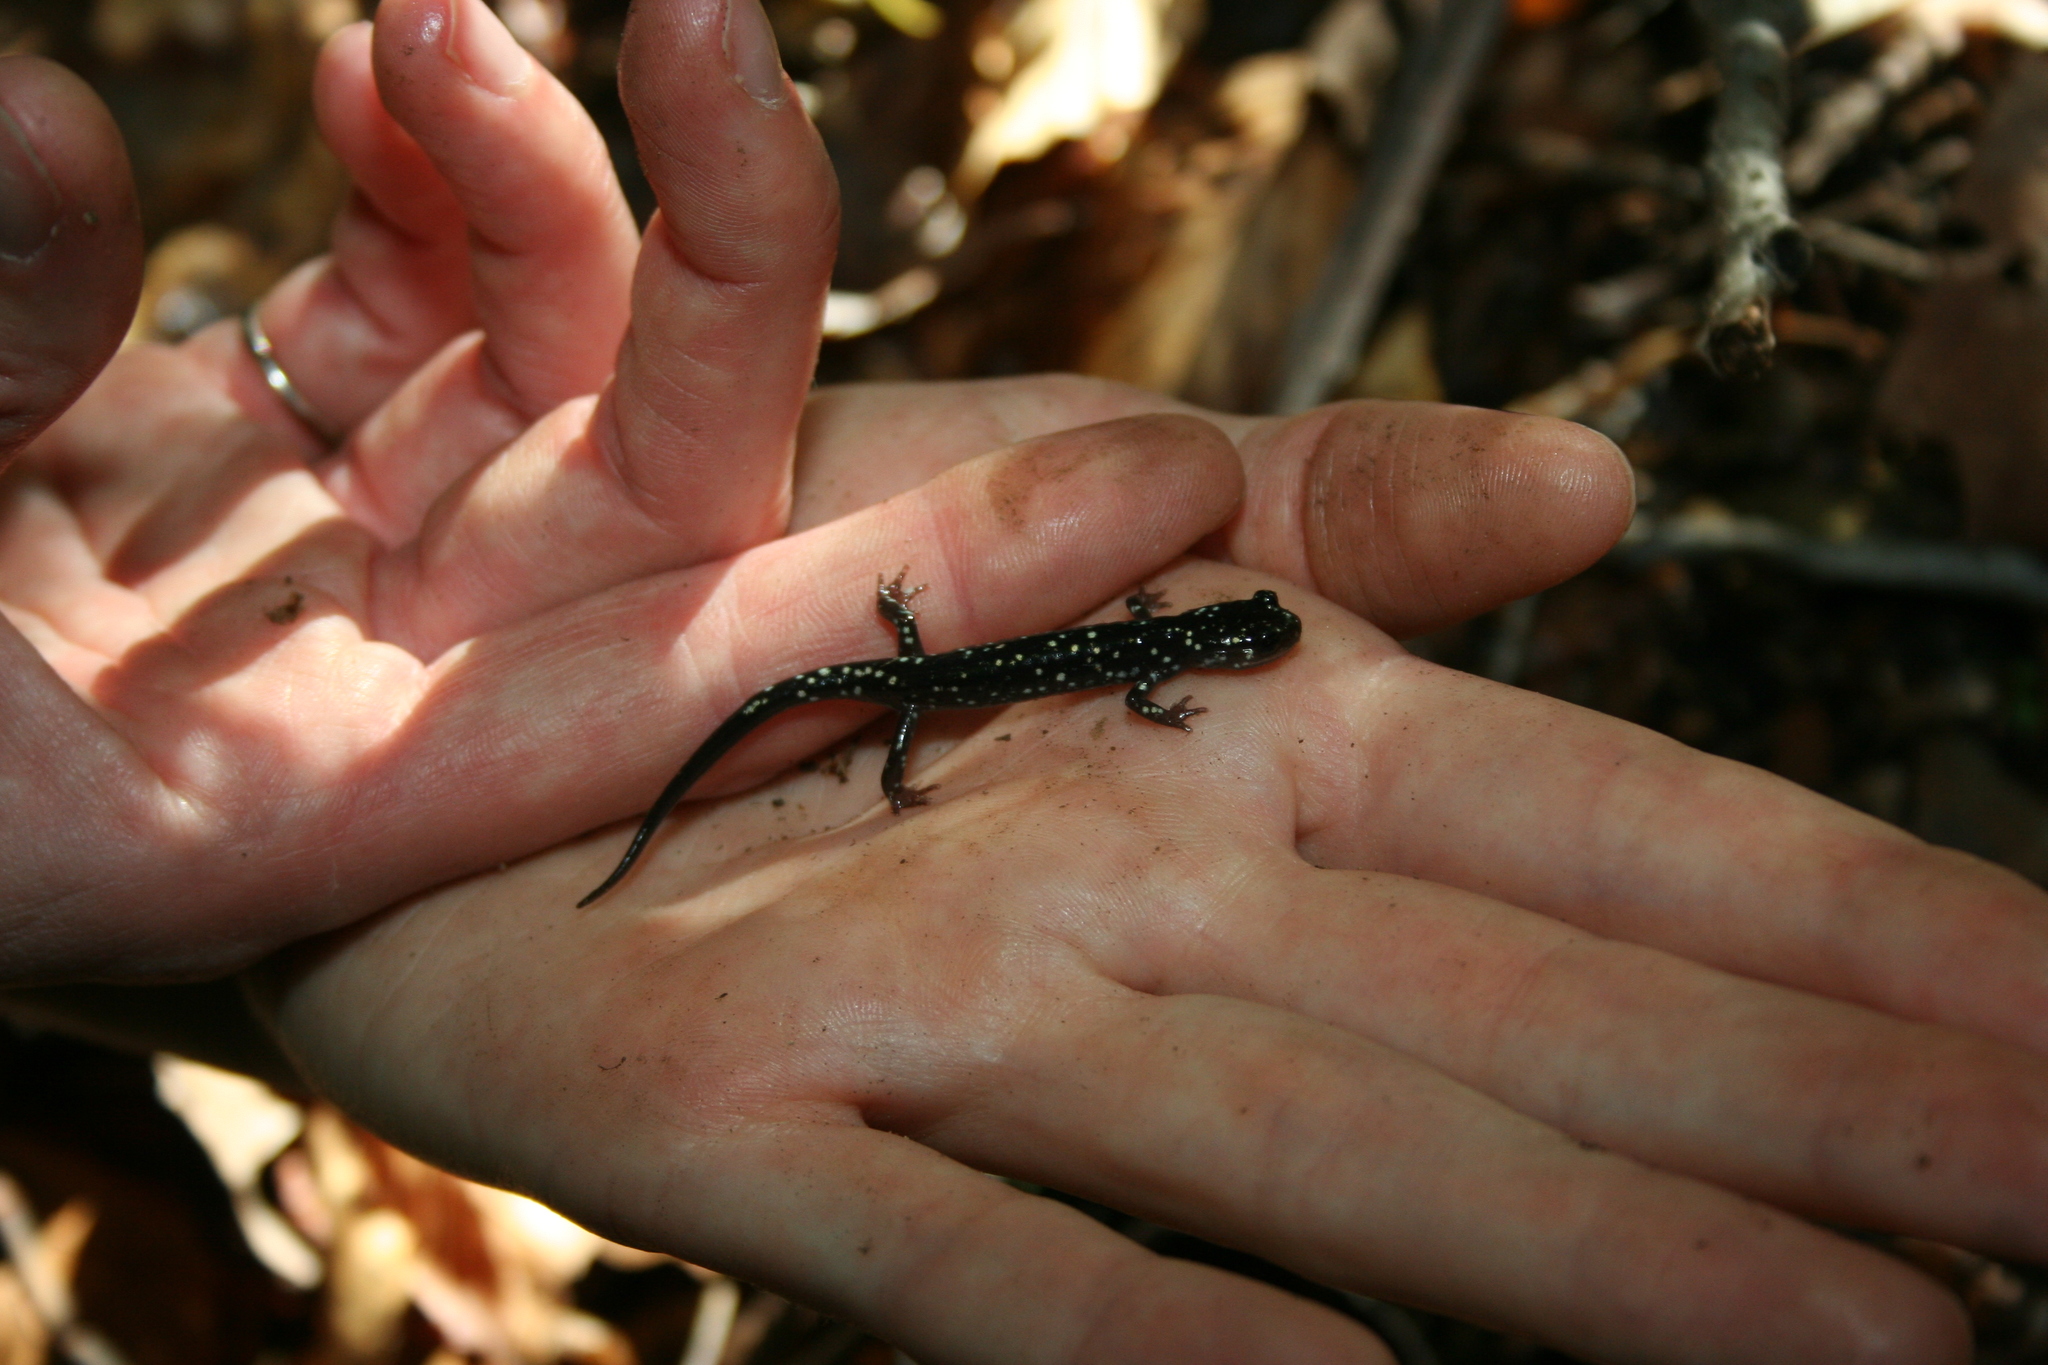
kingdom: Animalia
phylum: Chordata
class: Amphibia
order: Caudata
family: Plethodontidae
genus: Plethodon
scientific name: Plethodon glutinosus
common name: Northern slimy salamander
